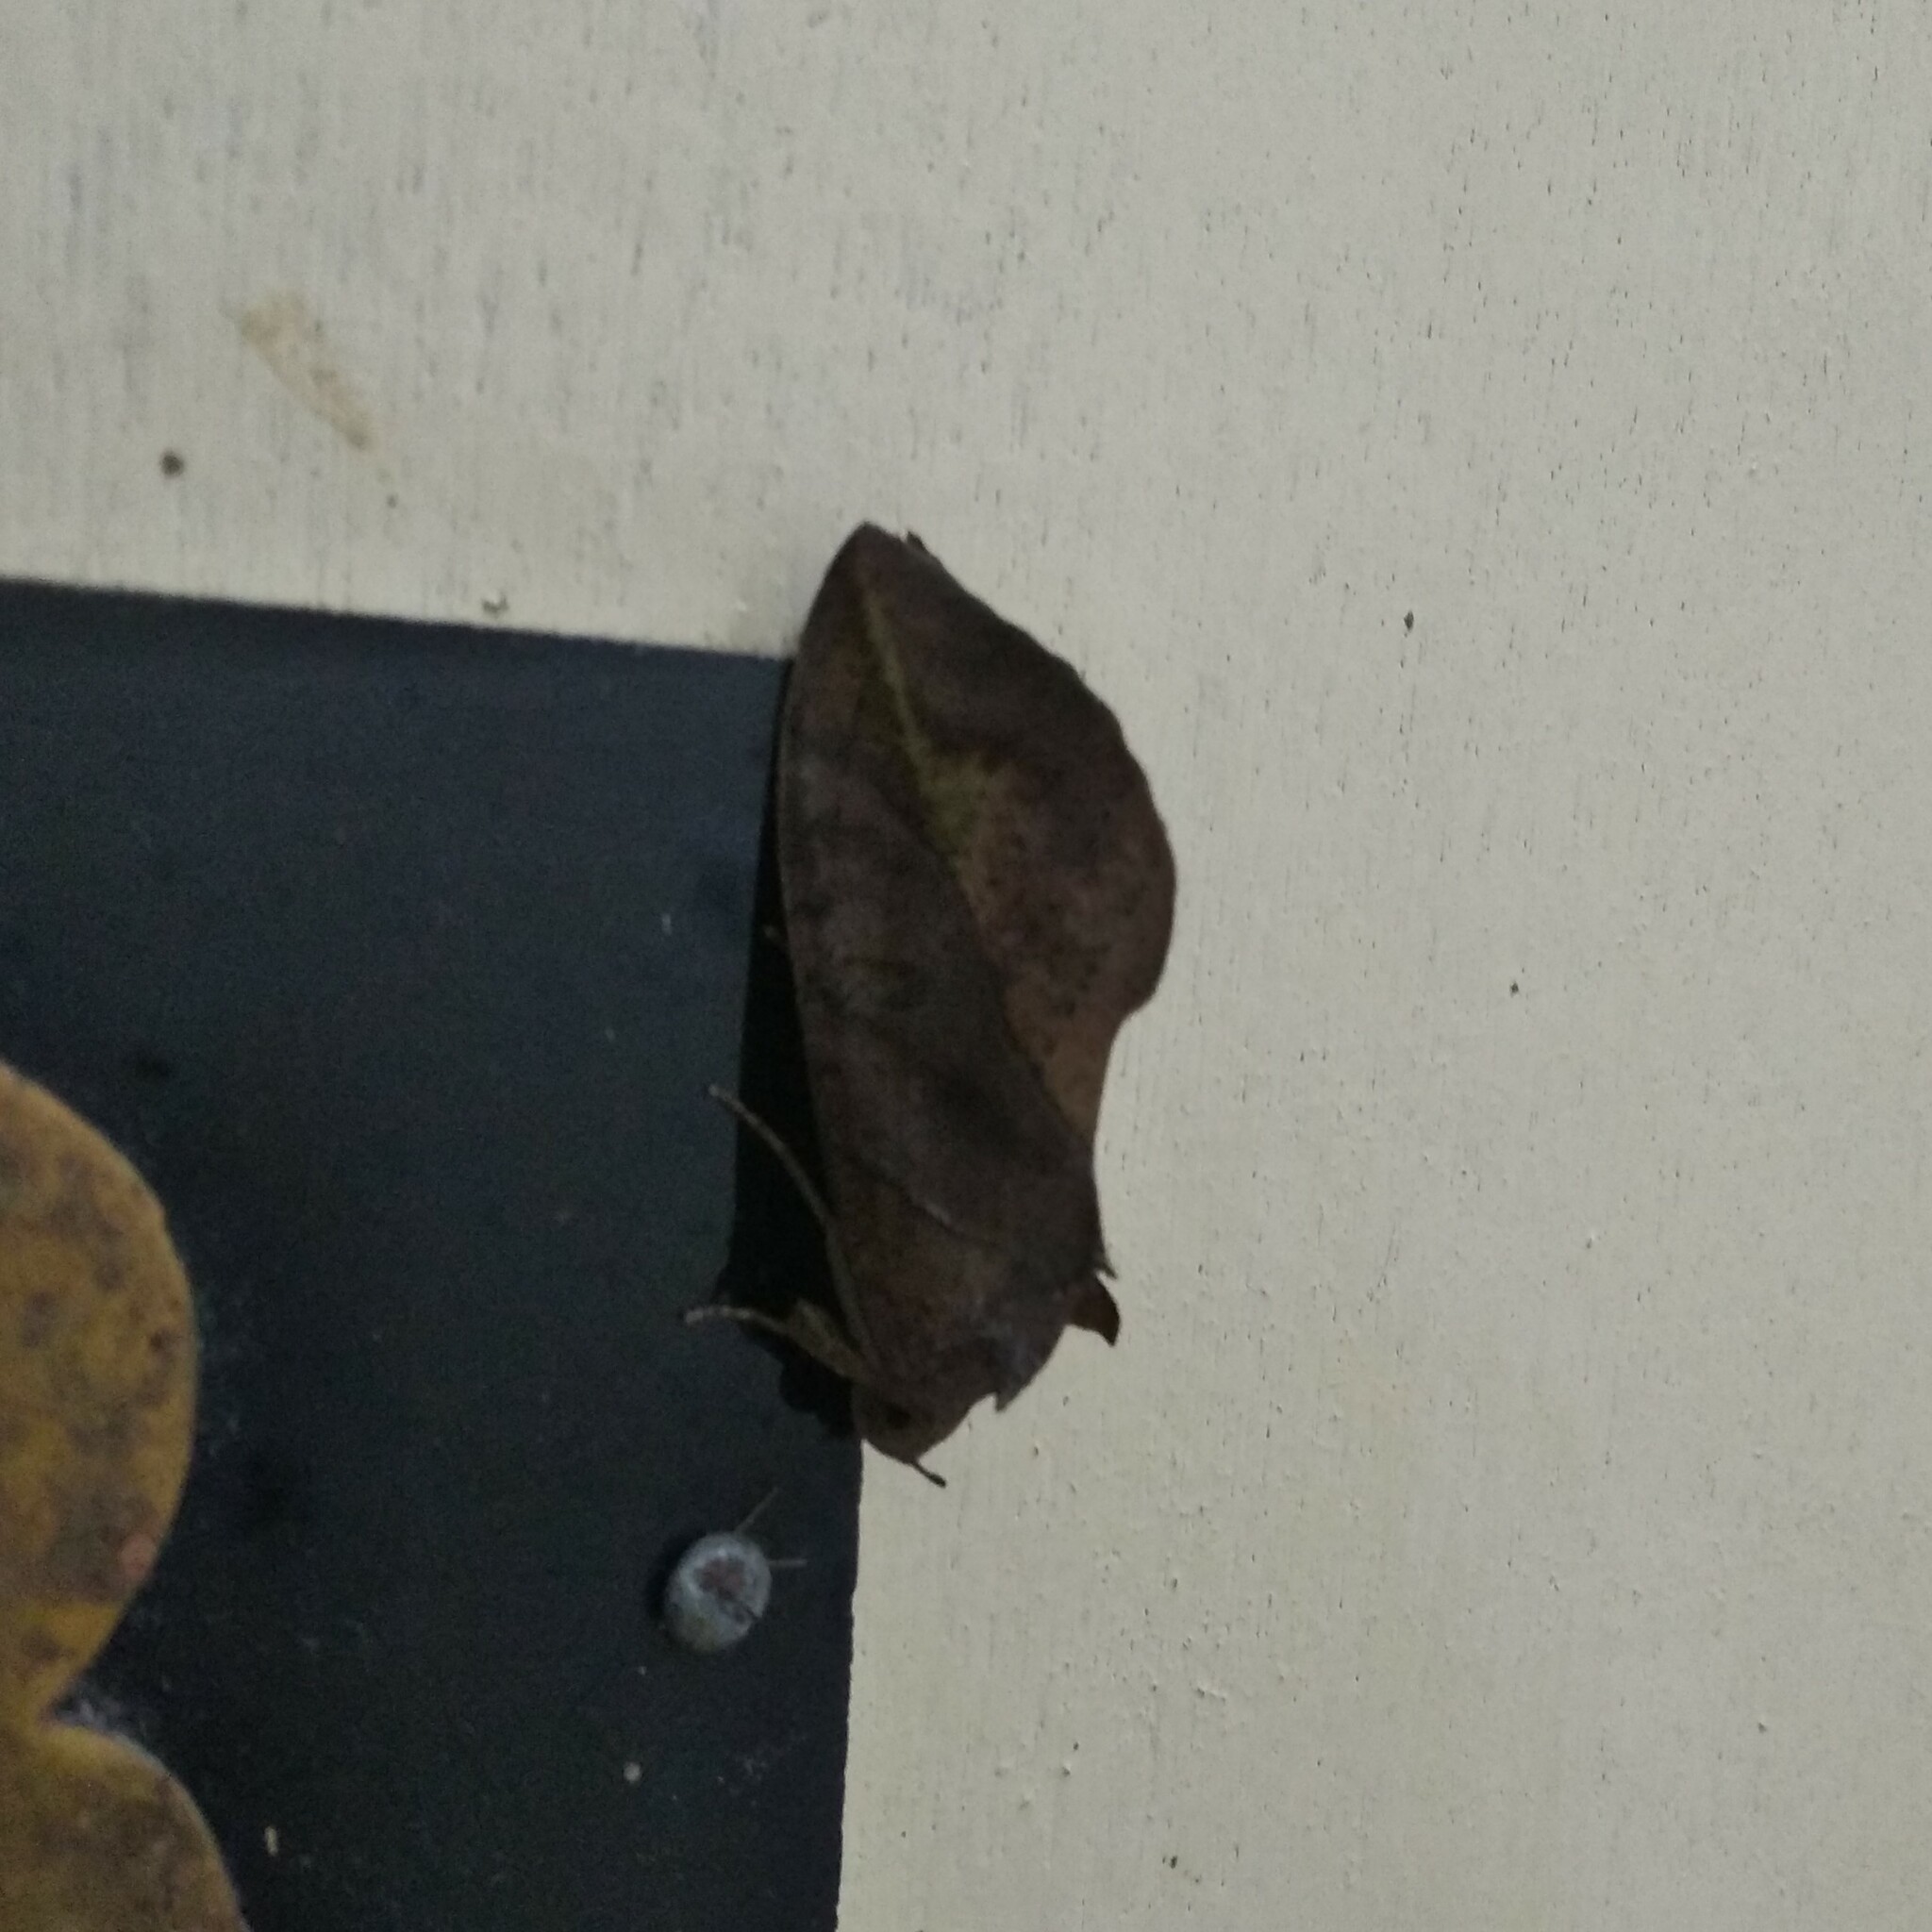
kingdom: Animalia
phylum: Arthropoda
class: Insecta
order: Lepidoptera
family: Erebidae
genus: Eudocima
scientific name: Eudocima phalonia
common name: Wasp
